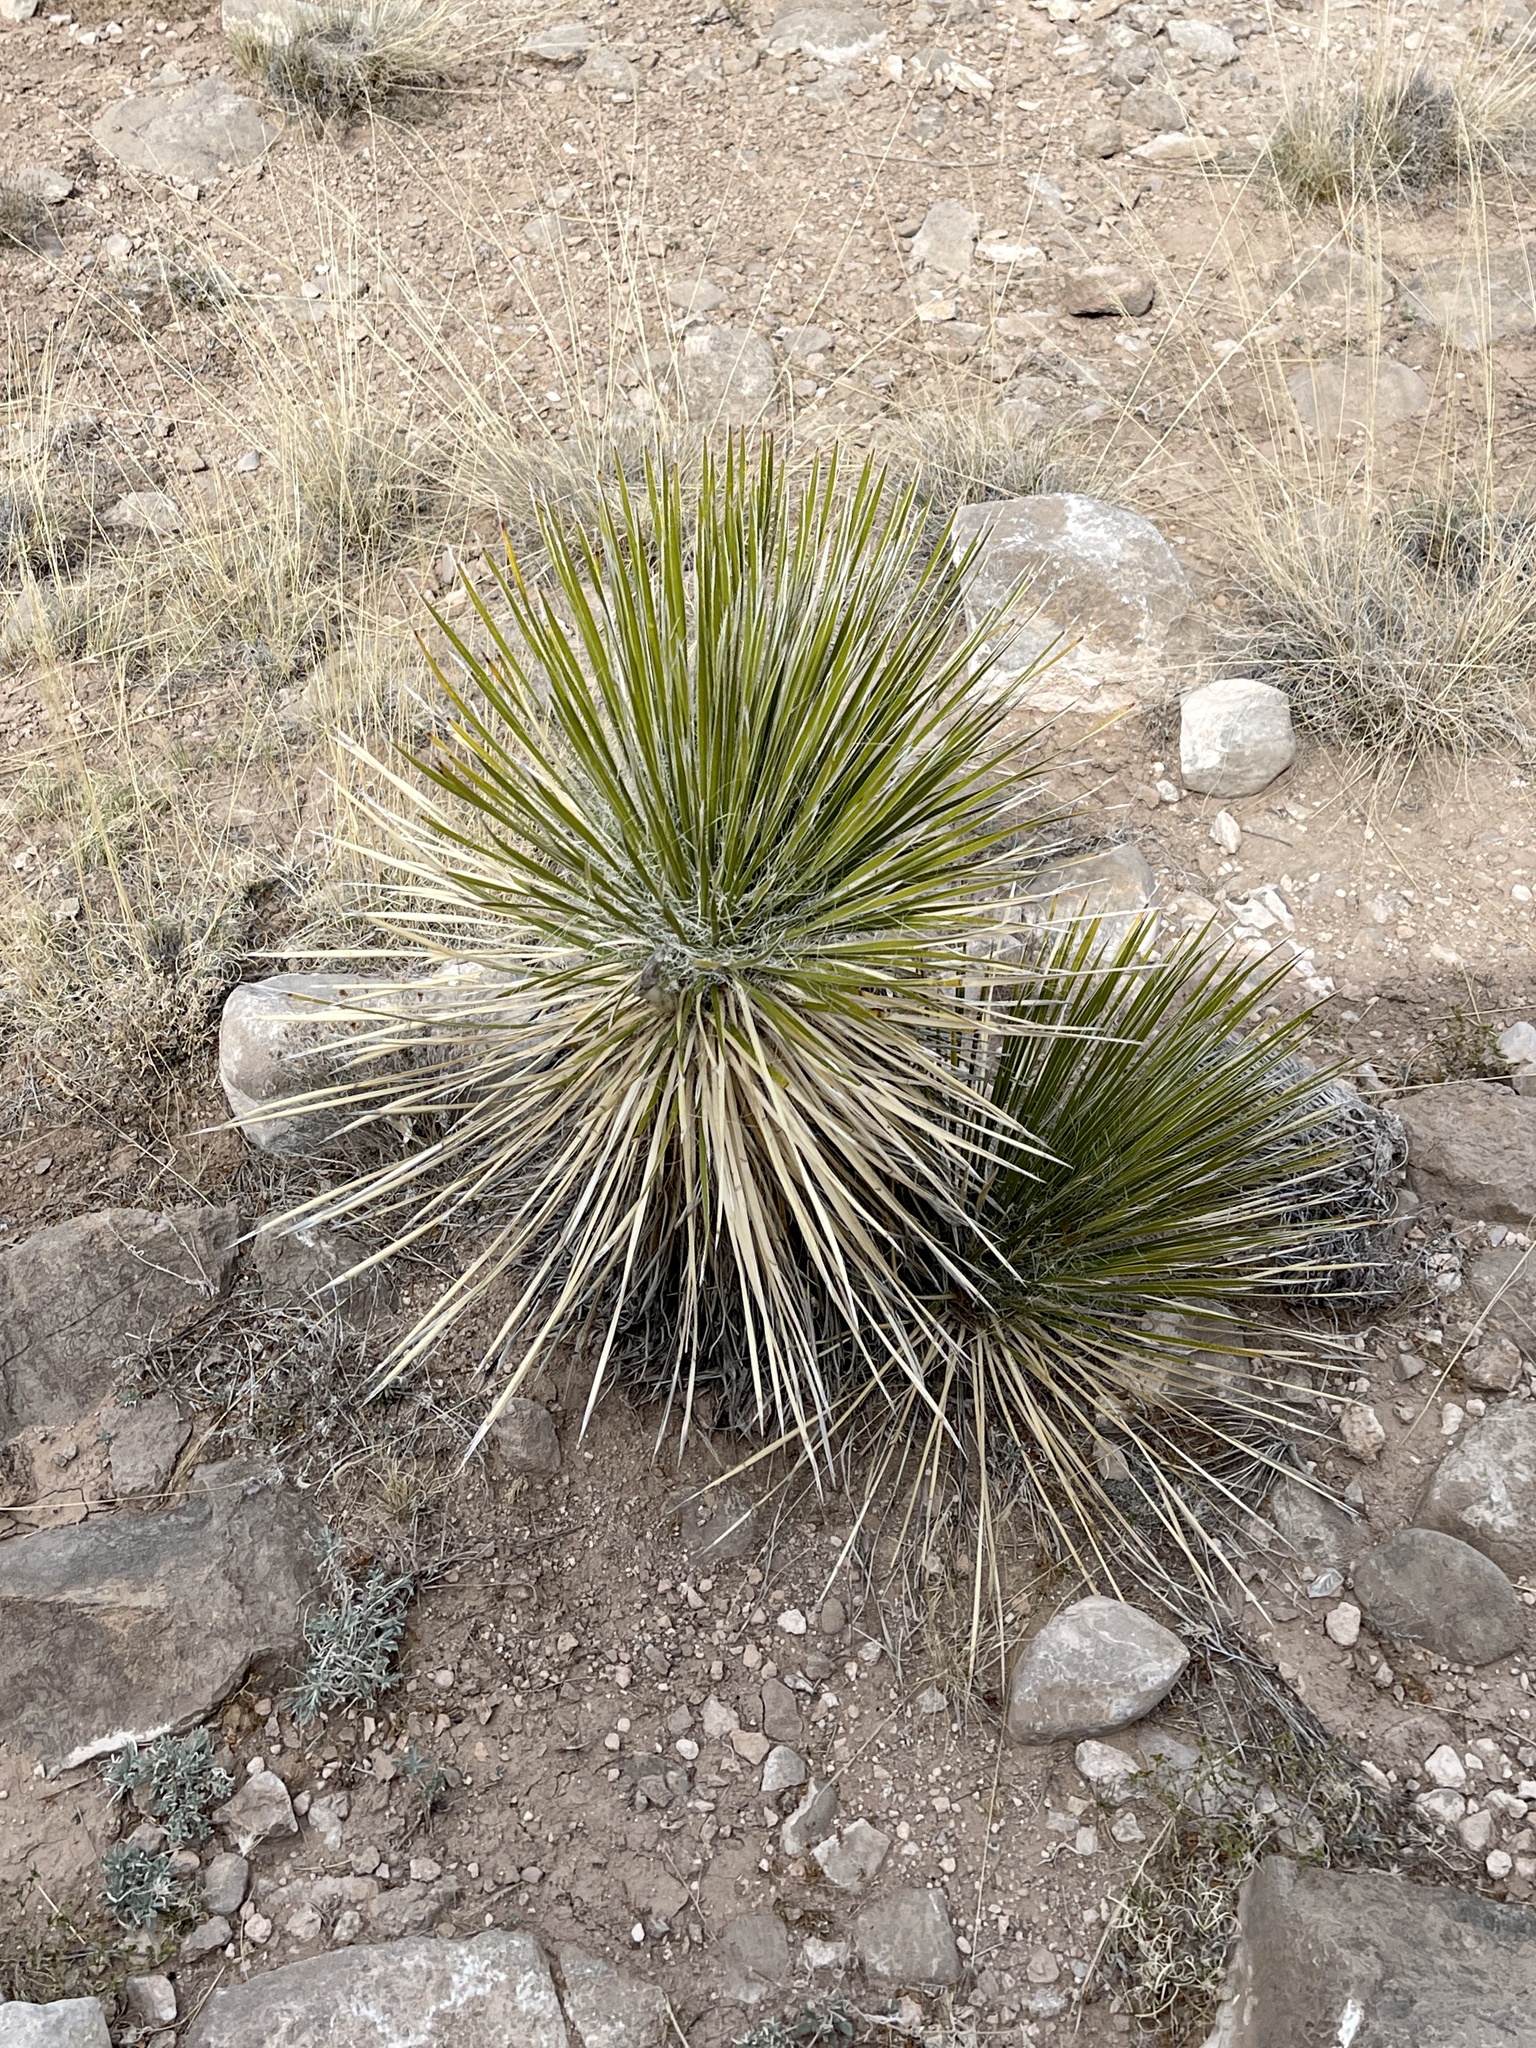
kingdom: Plantae
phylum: Tracheophyta
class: Liliopsida
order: Asparagales
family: Asparagaceae
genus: Yucca
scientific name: Yucca elata
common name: Palmella
